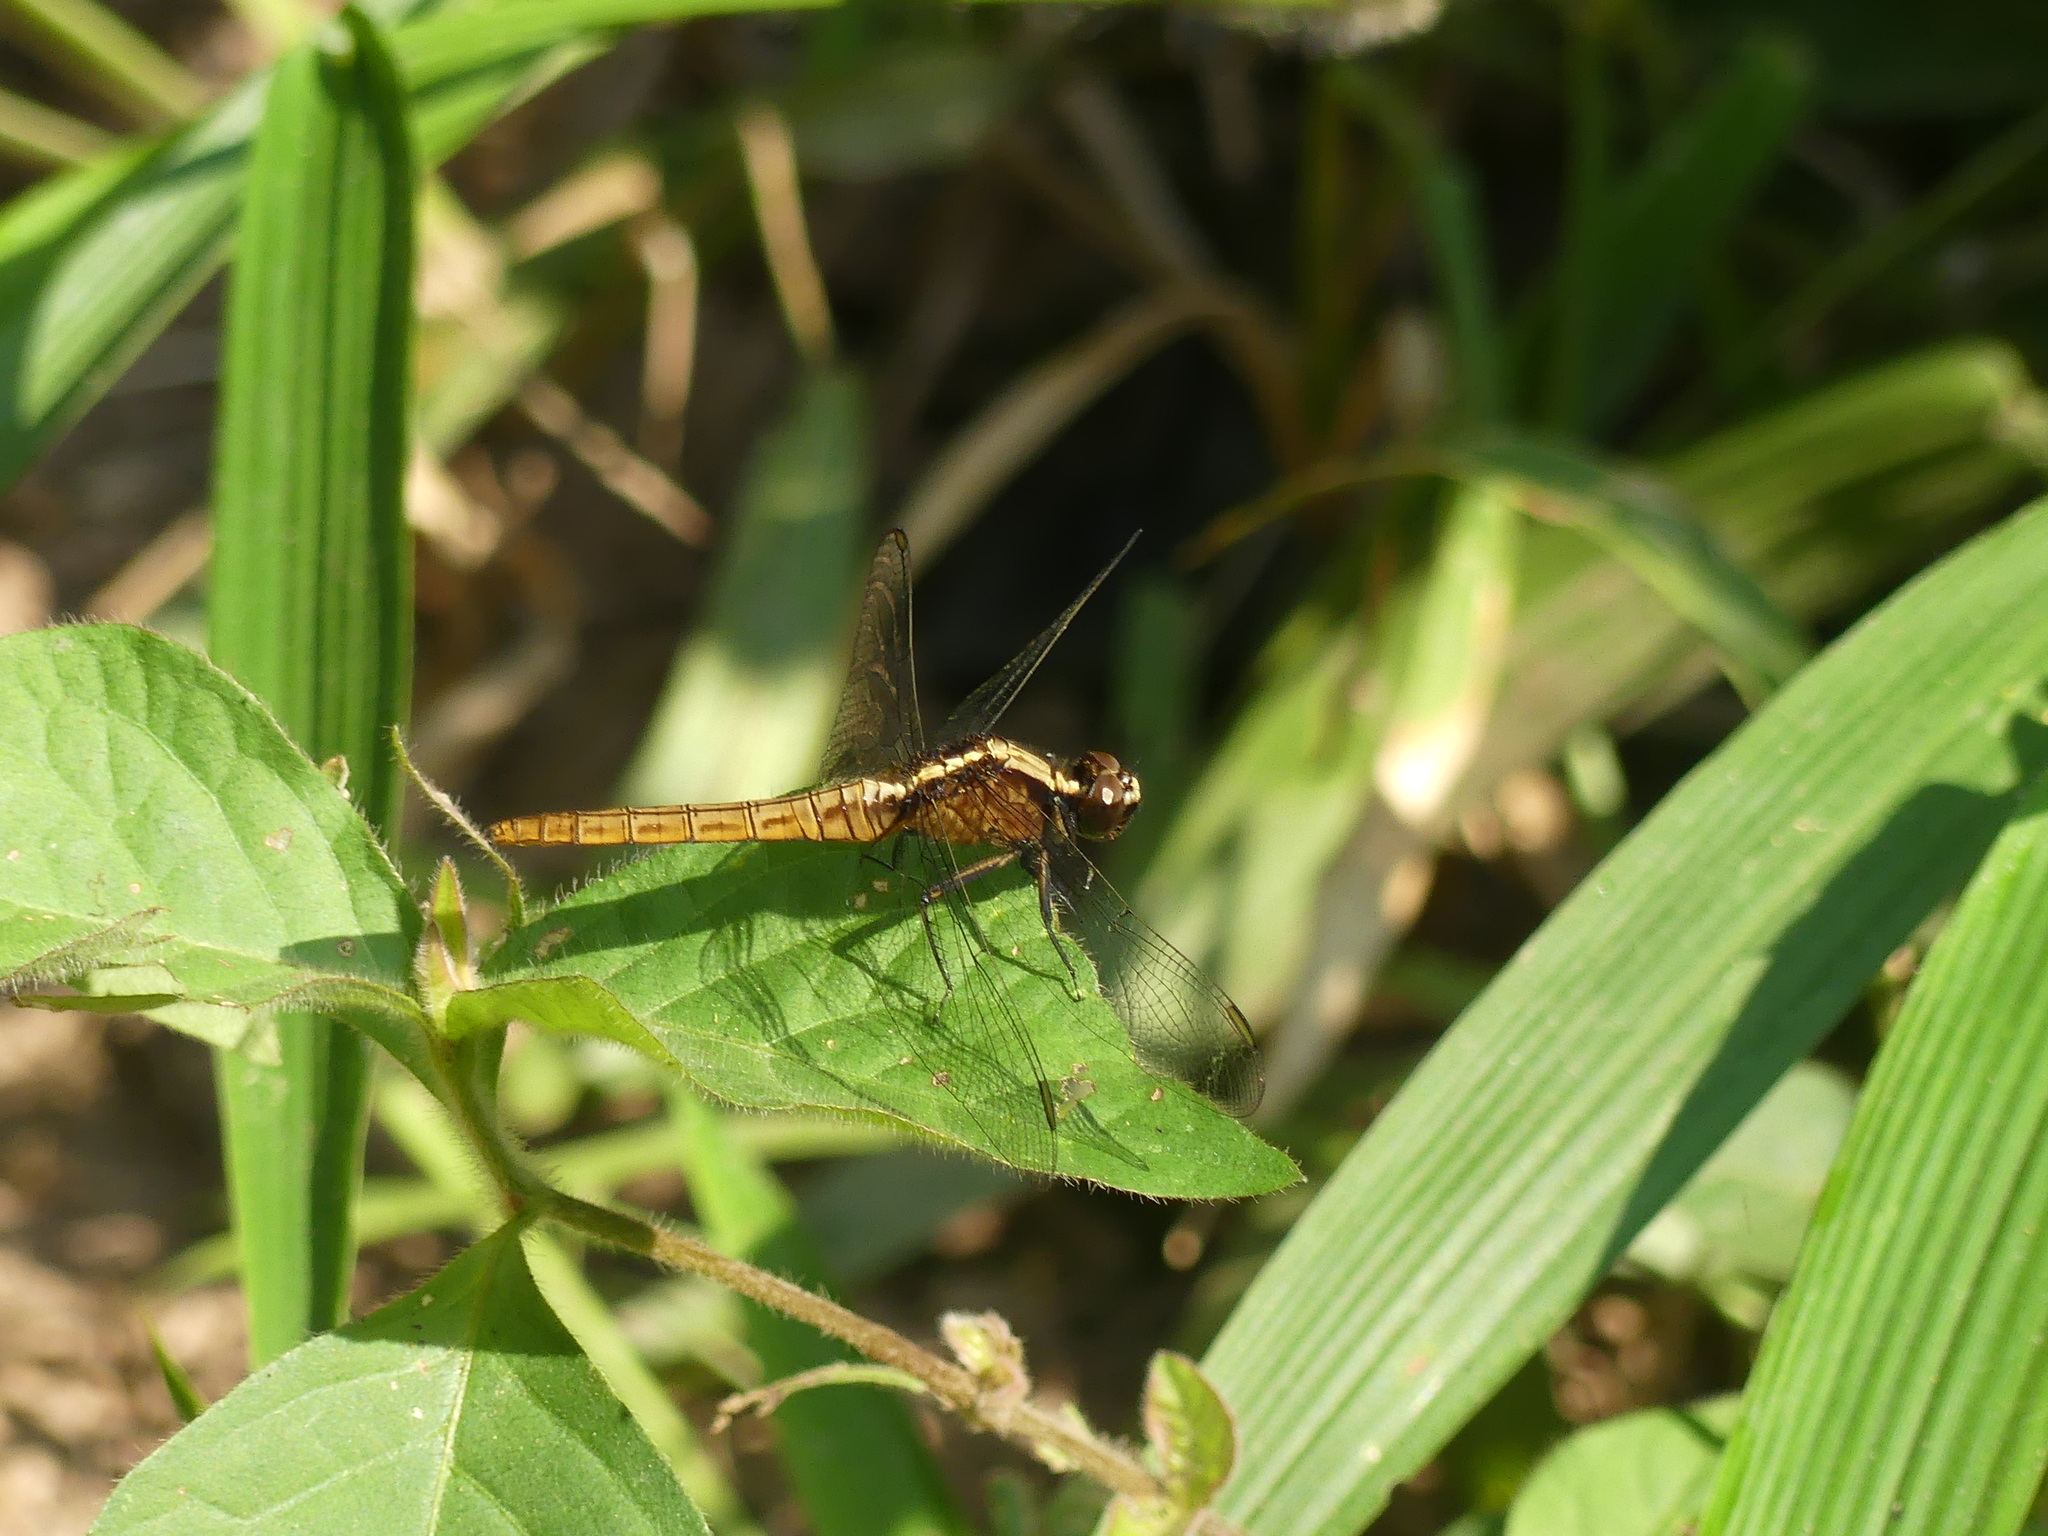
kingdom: Animalia
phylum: Arthropoda
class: Insecta
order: Odonata
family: Libellulidae
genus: Erythemis
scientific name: Erythemis peruviana
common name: Flame-tailed pondhawk
